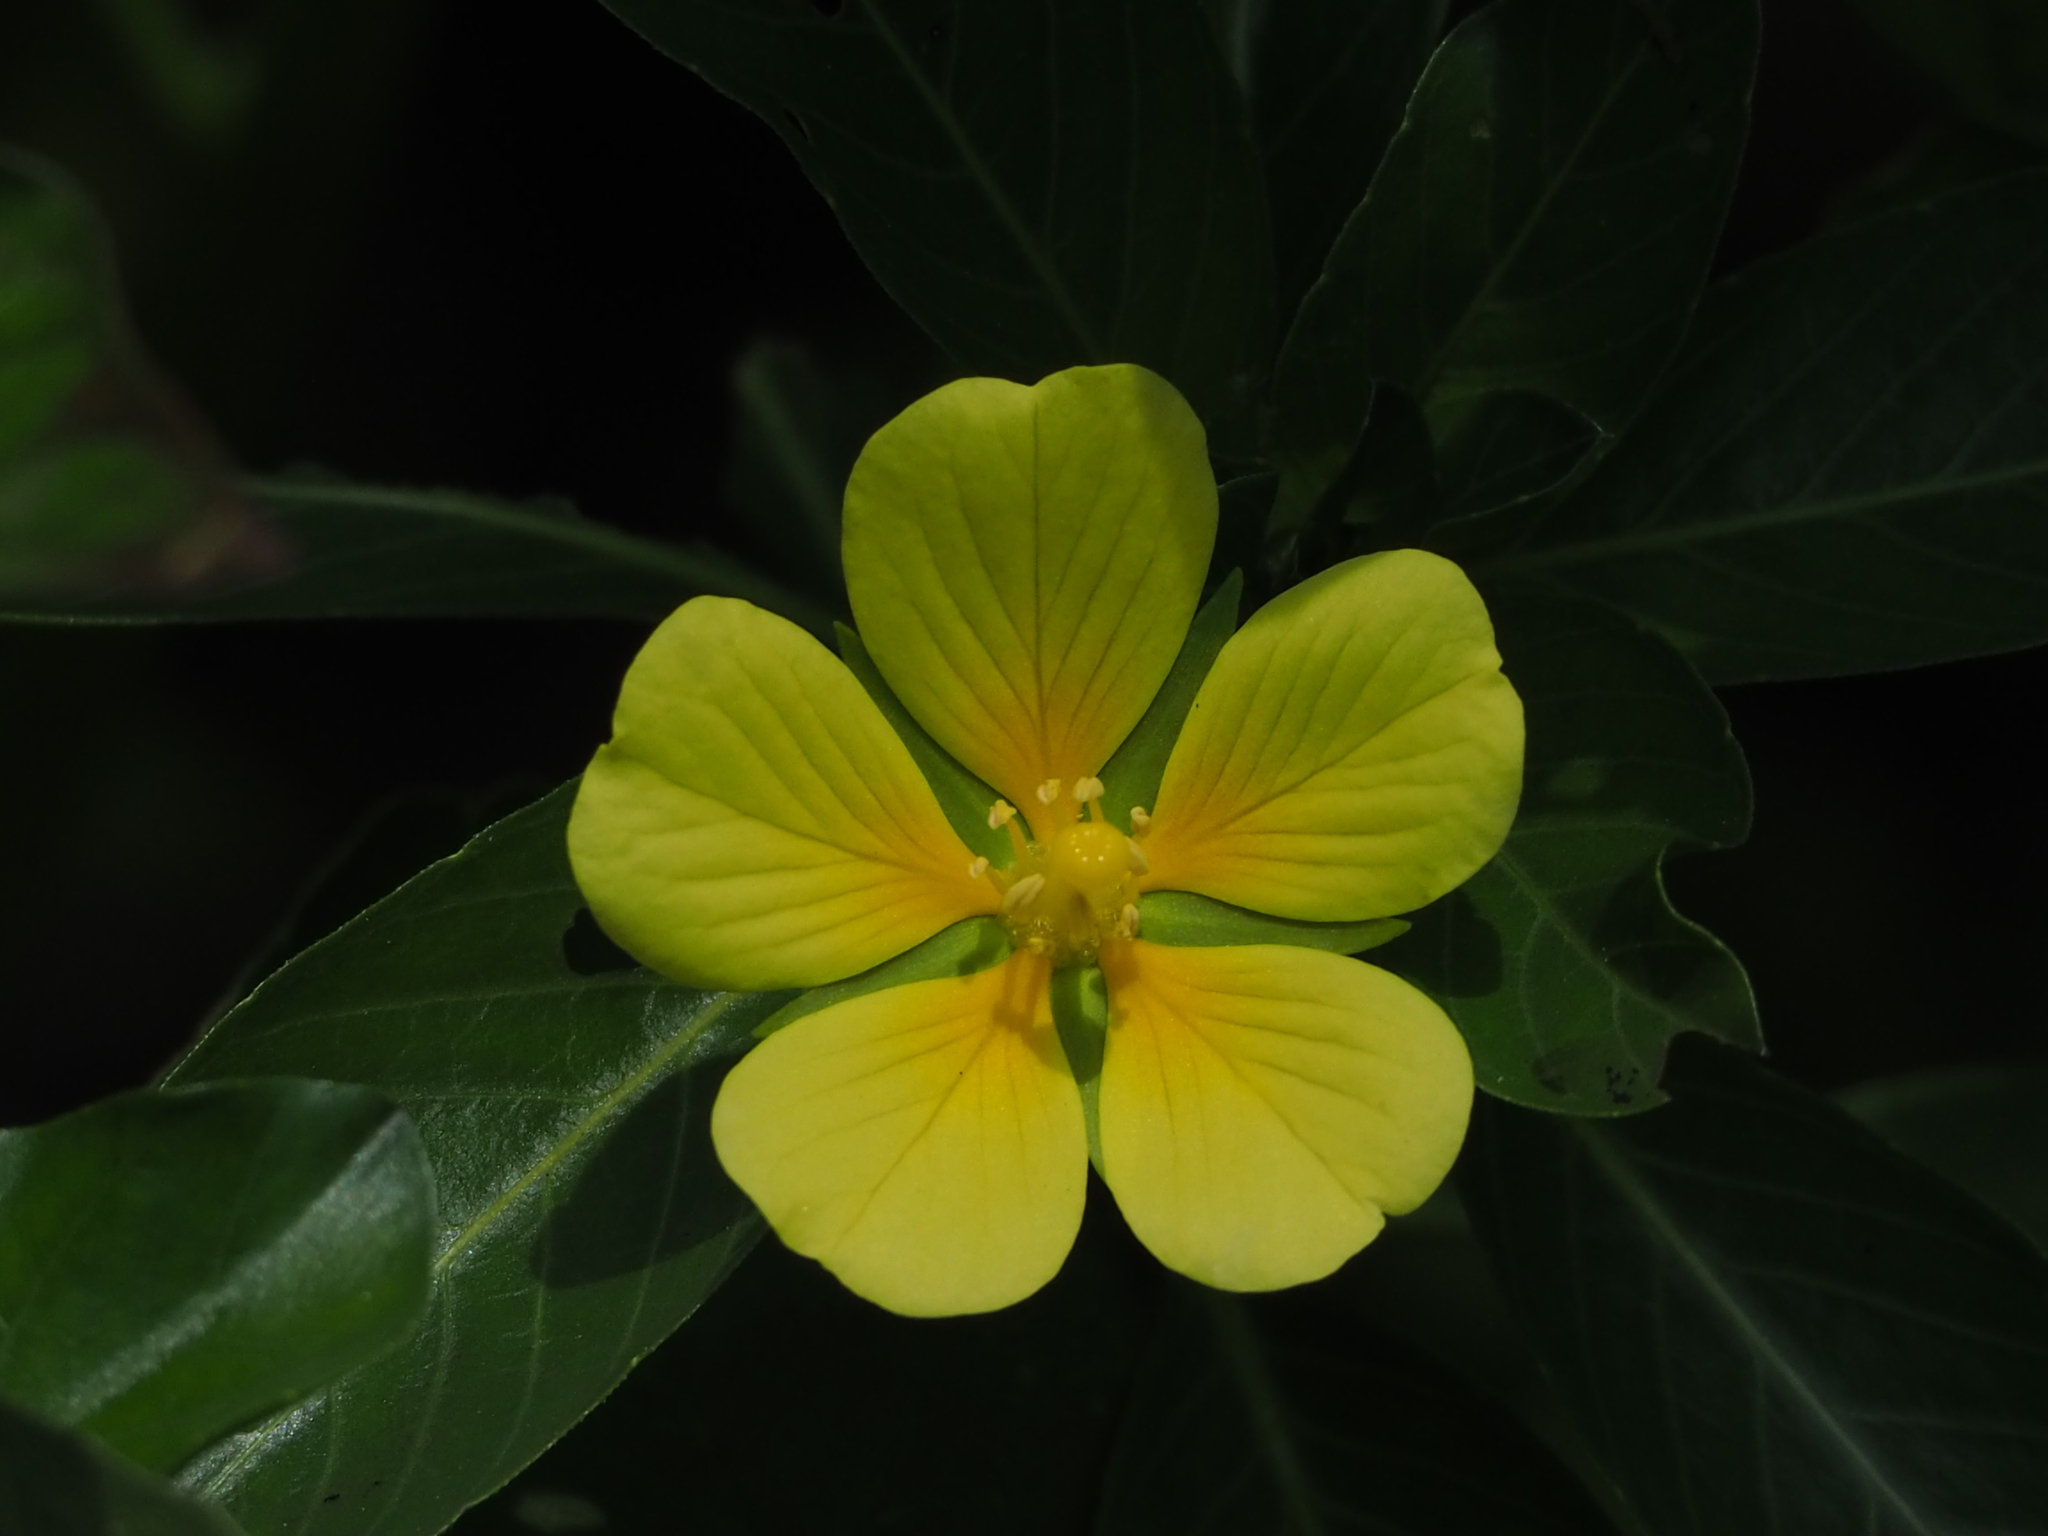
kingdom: Plantae
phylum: Tracheophyta
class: Magnoliopsida
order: Myrtales
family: Onagraceae
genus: Ludwigia
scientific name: Ludwigia taiwanensis
